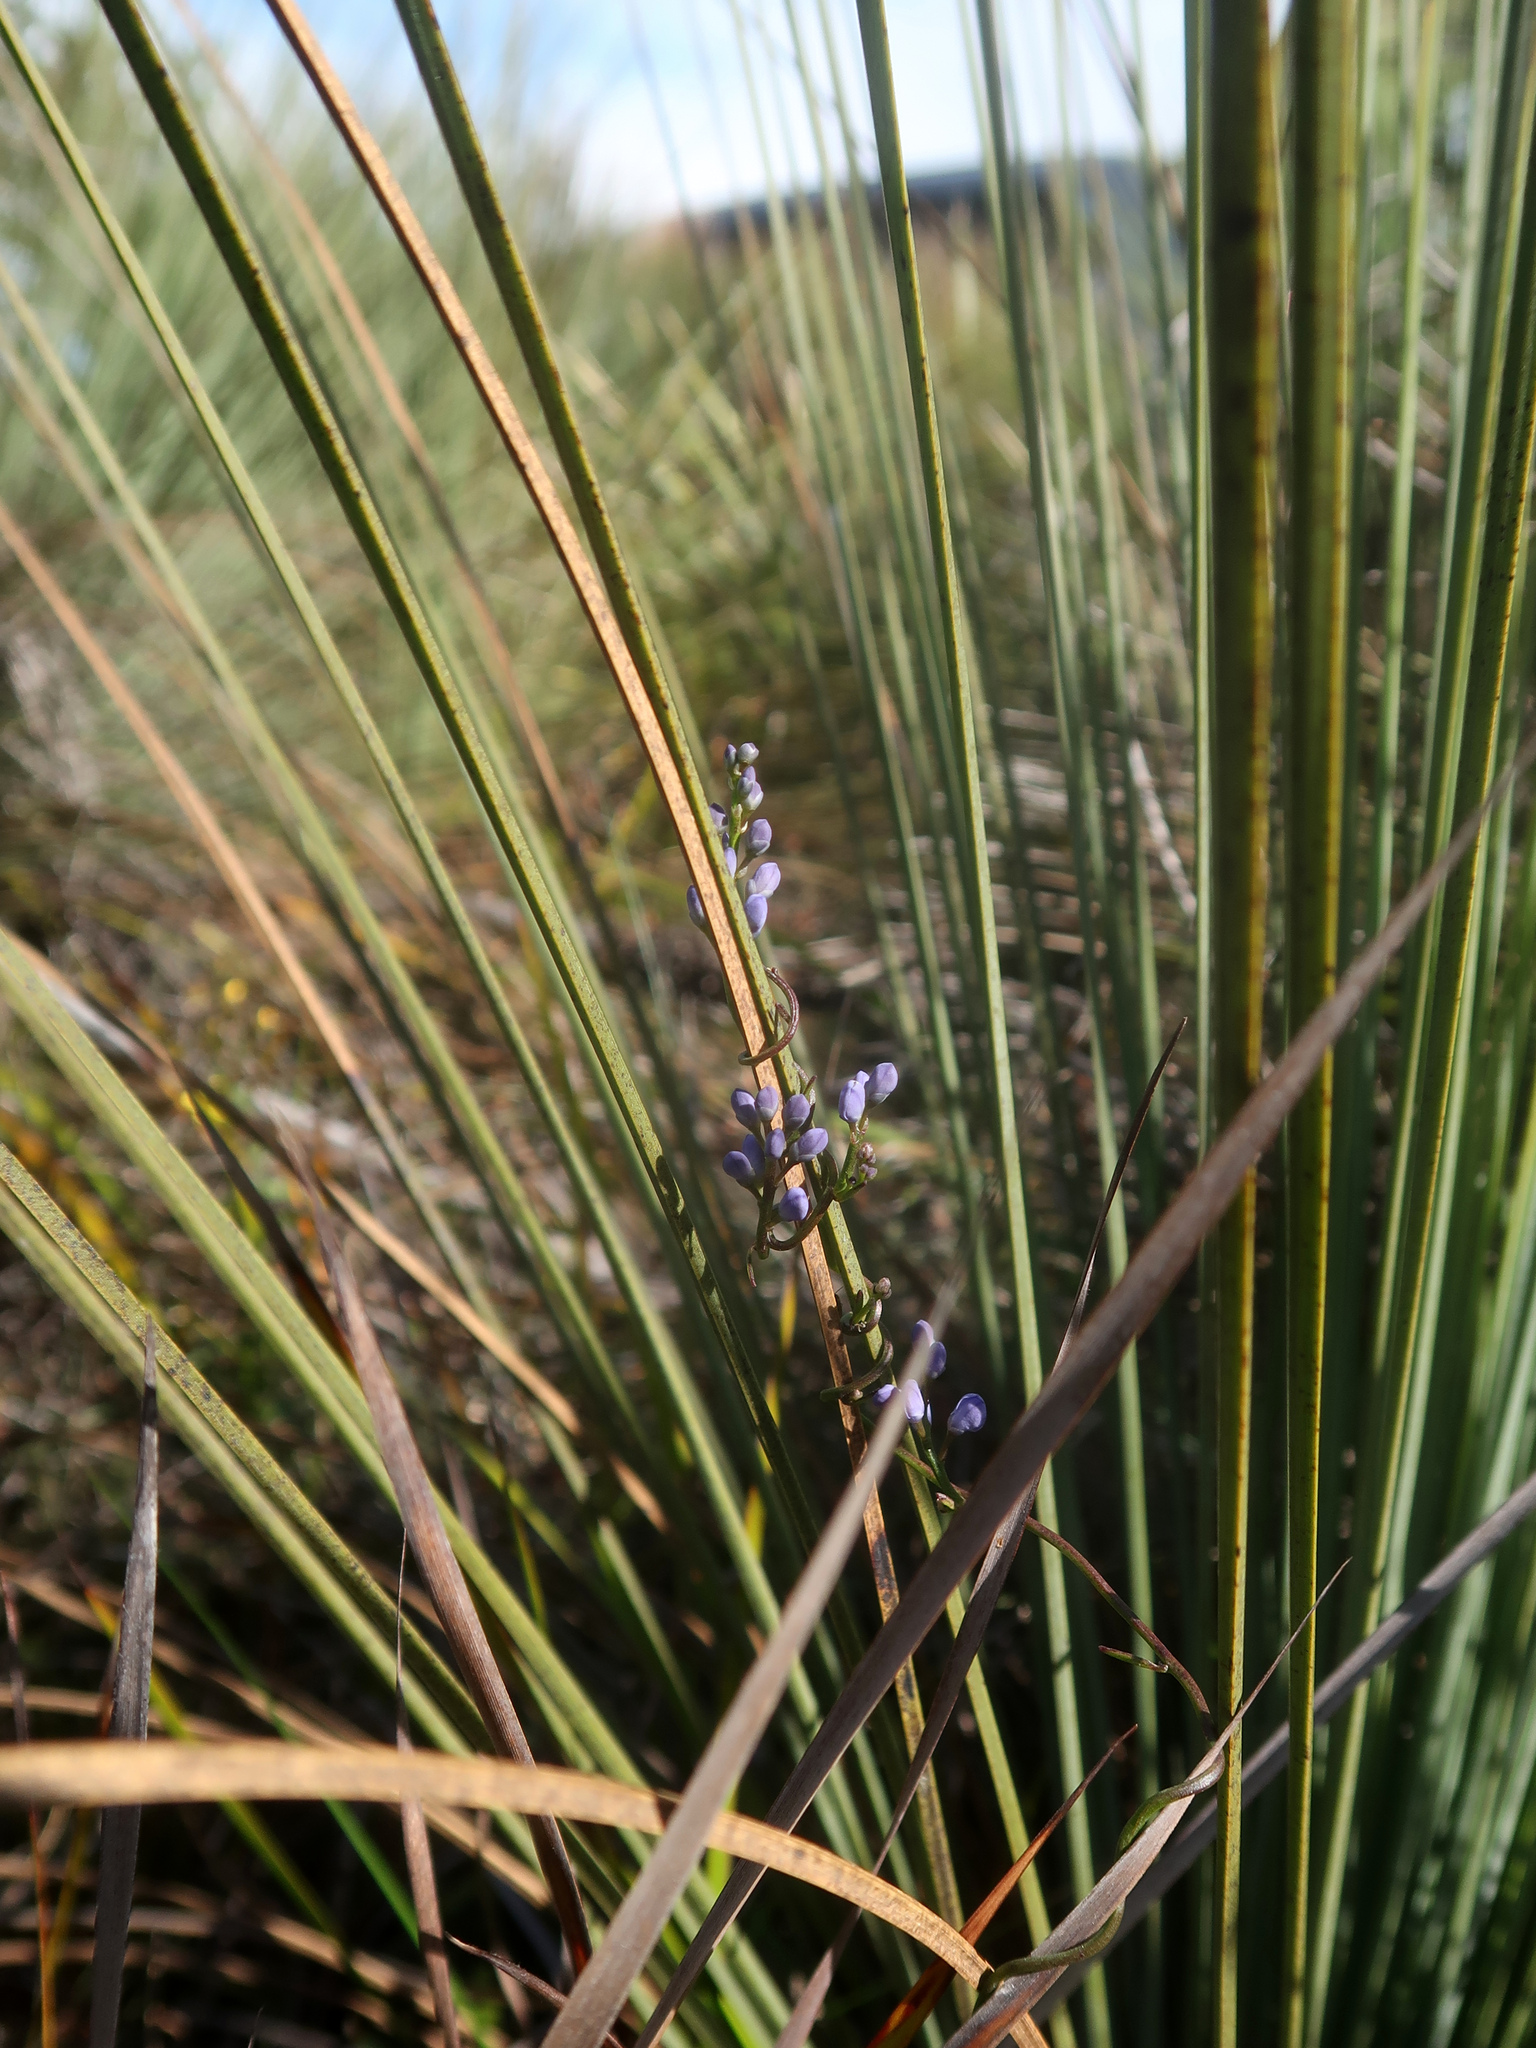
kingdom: Plantae
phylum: Tracheophyta
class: Magnoliopsida
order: Fabales
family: Polygalaceae
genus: Comesperma
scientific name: Comesperma volubile
